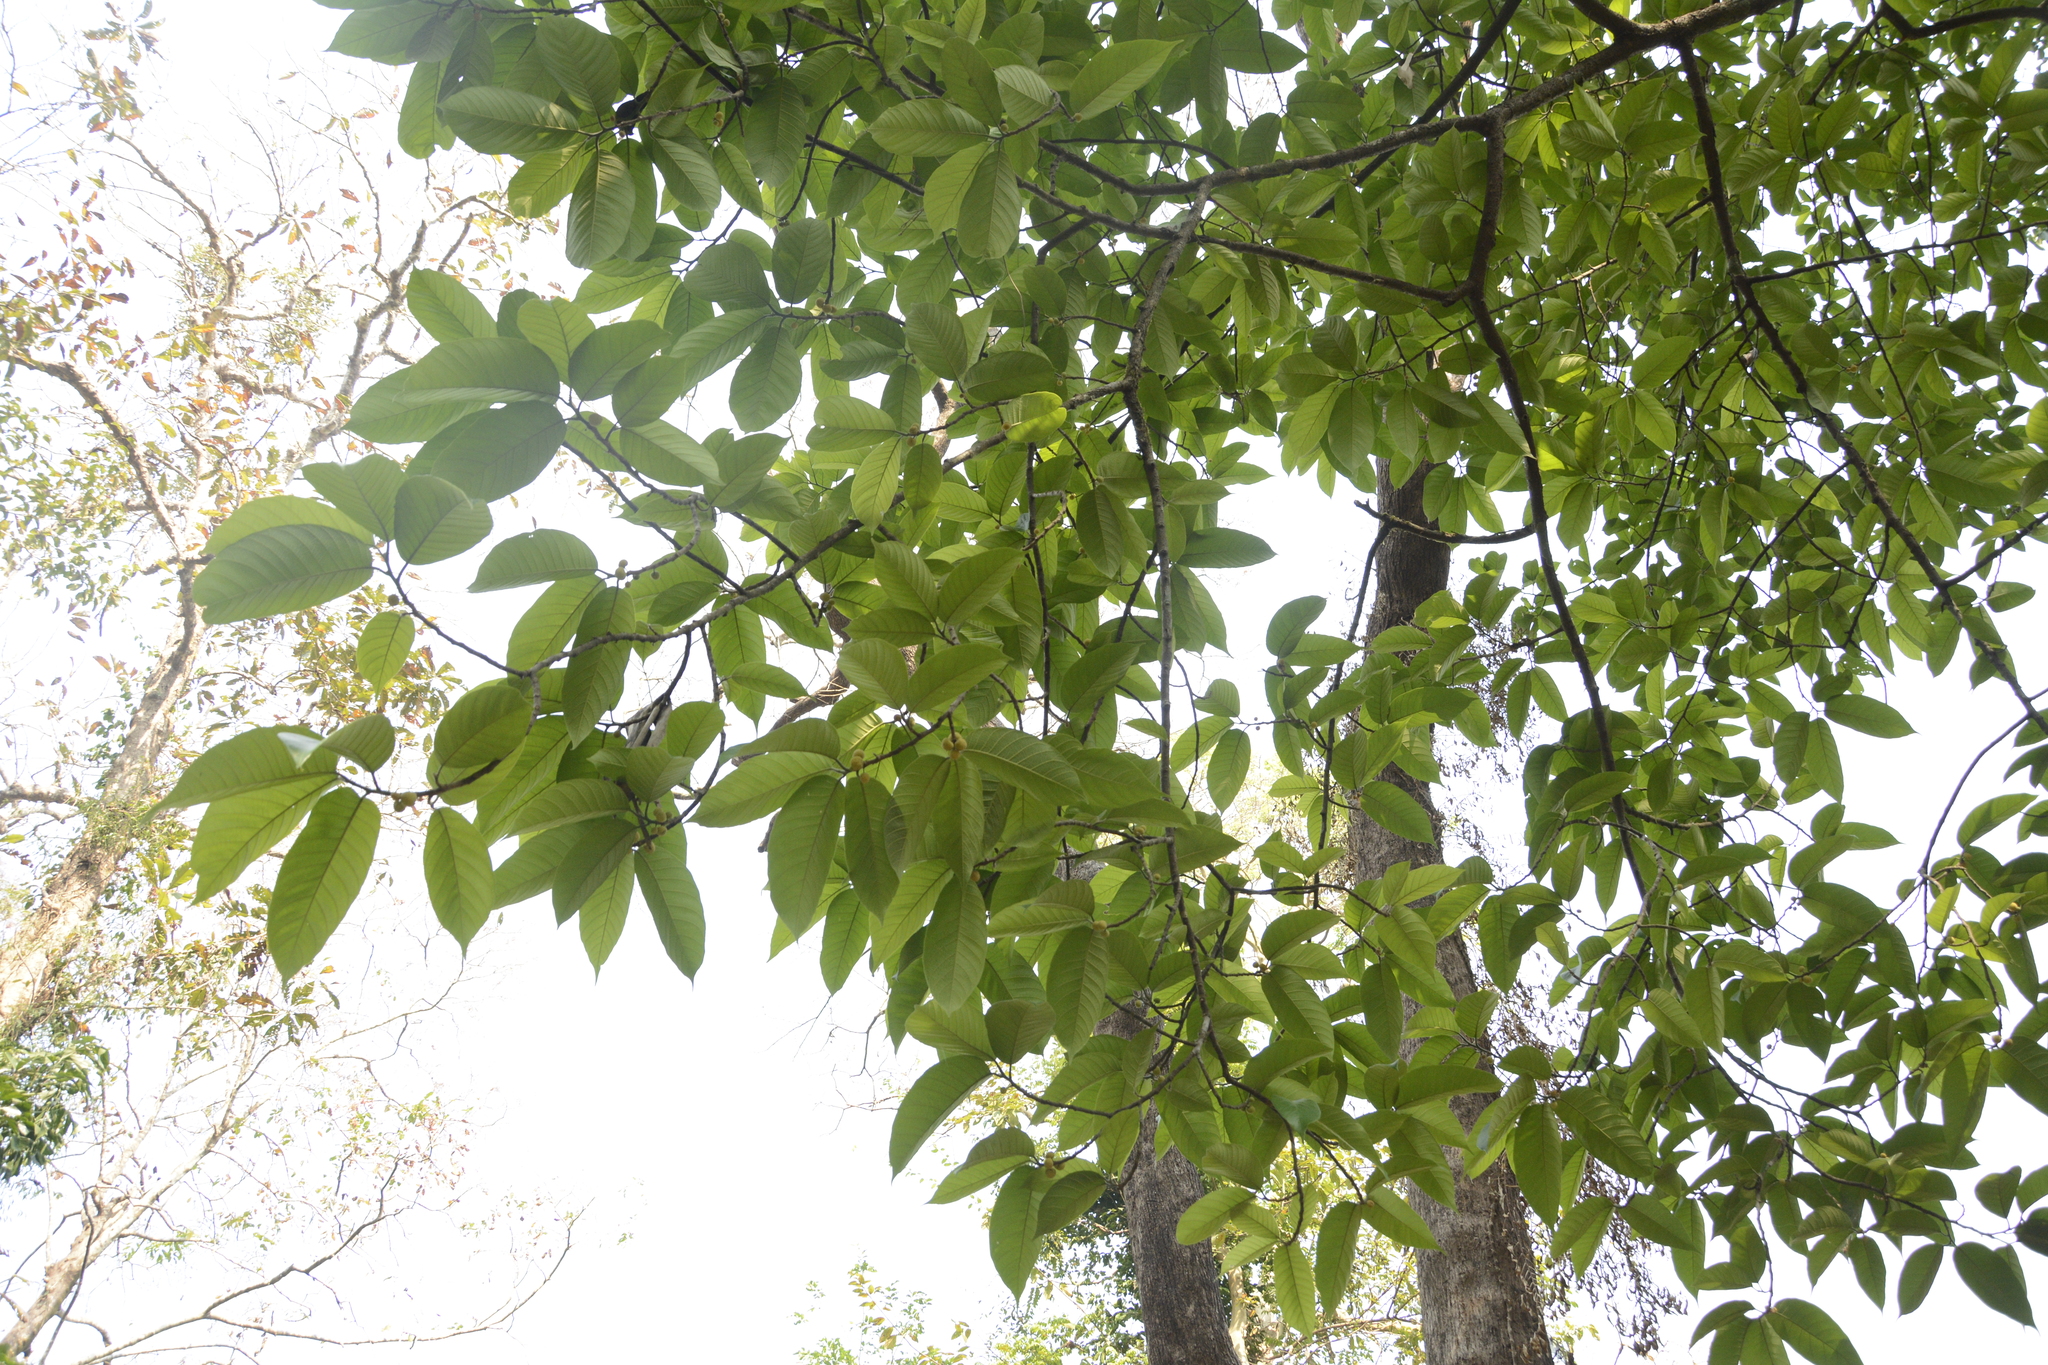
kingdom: Plantae
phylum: Tracheophyta
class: Magnoliopsida
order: Rosales
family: Moraceae
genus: Artocarpus
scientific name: Artocarpus zeylanicus
